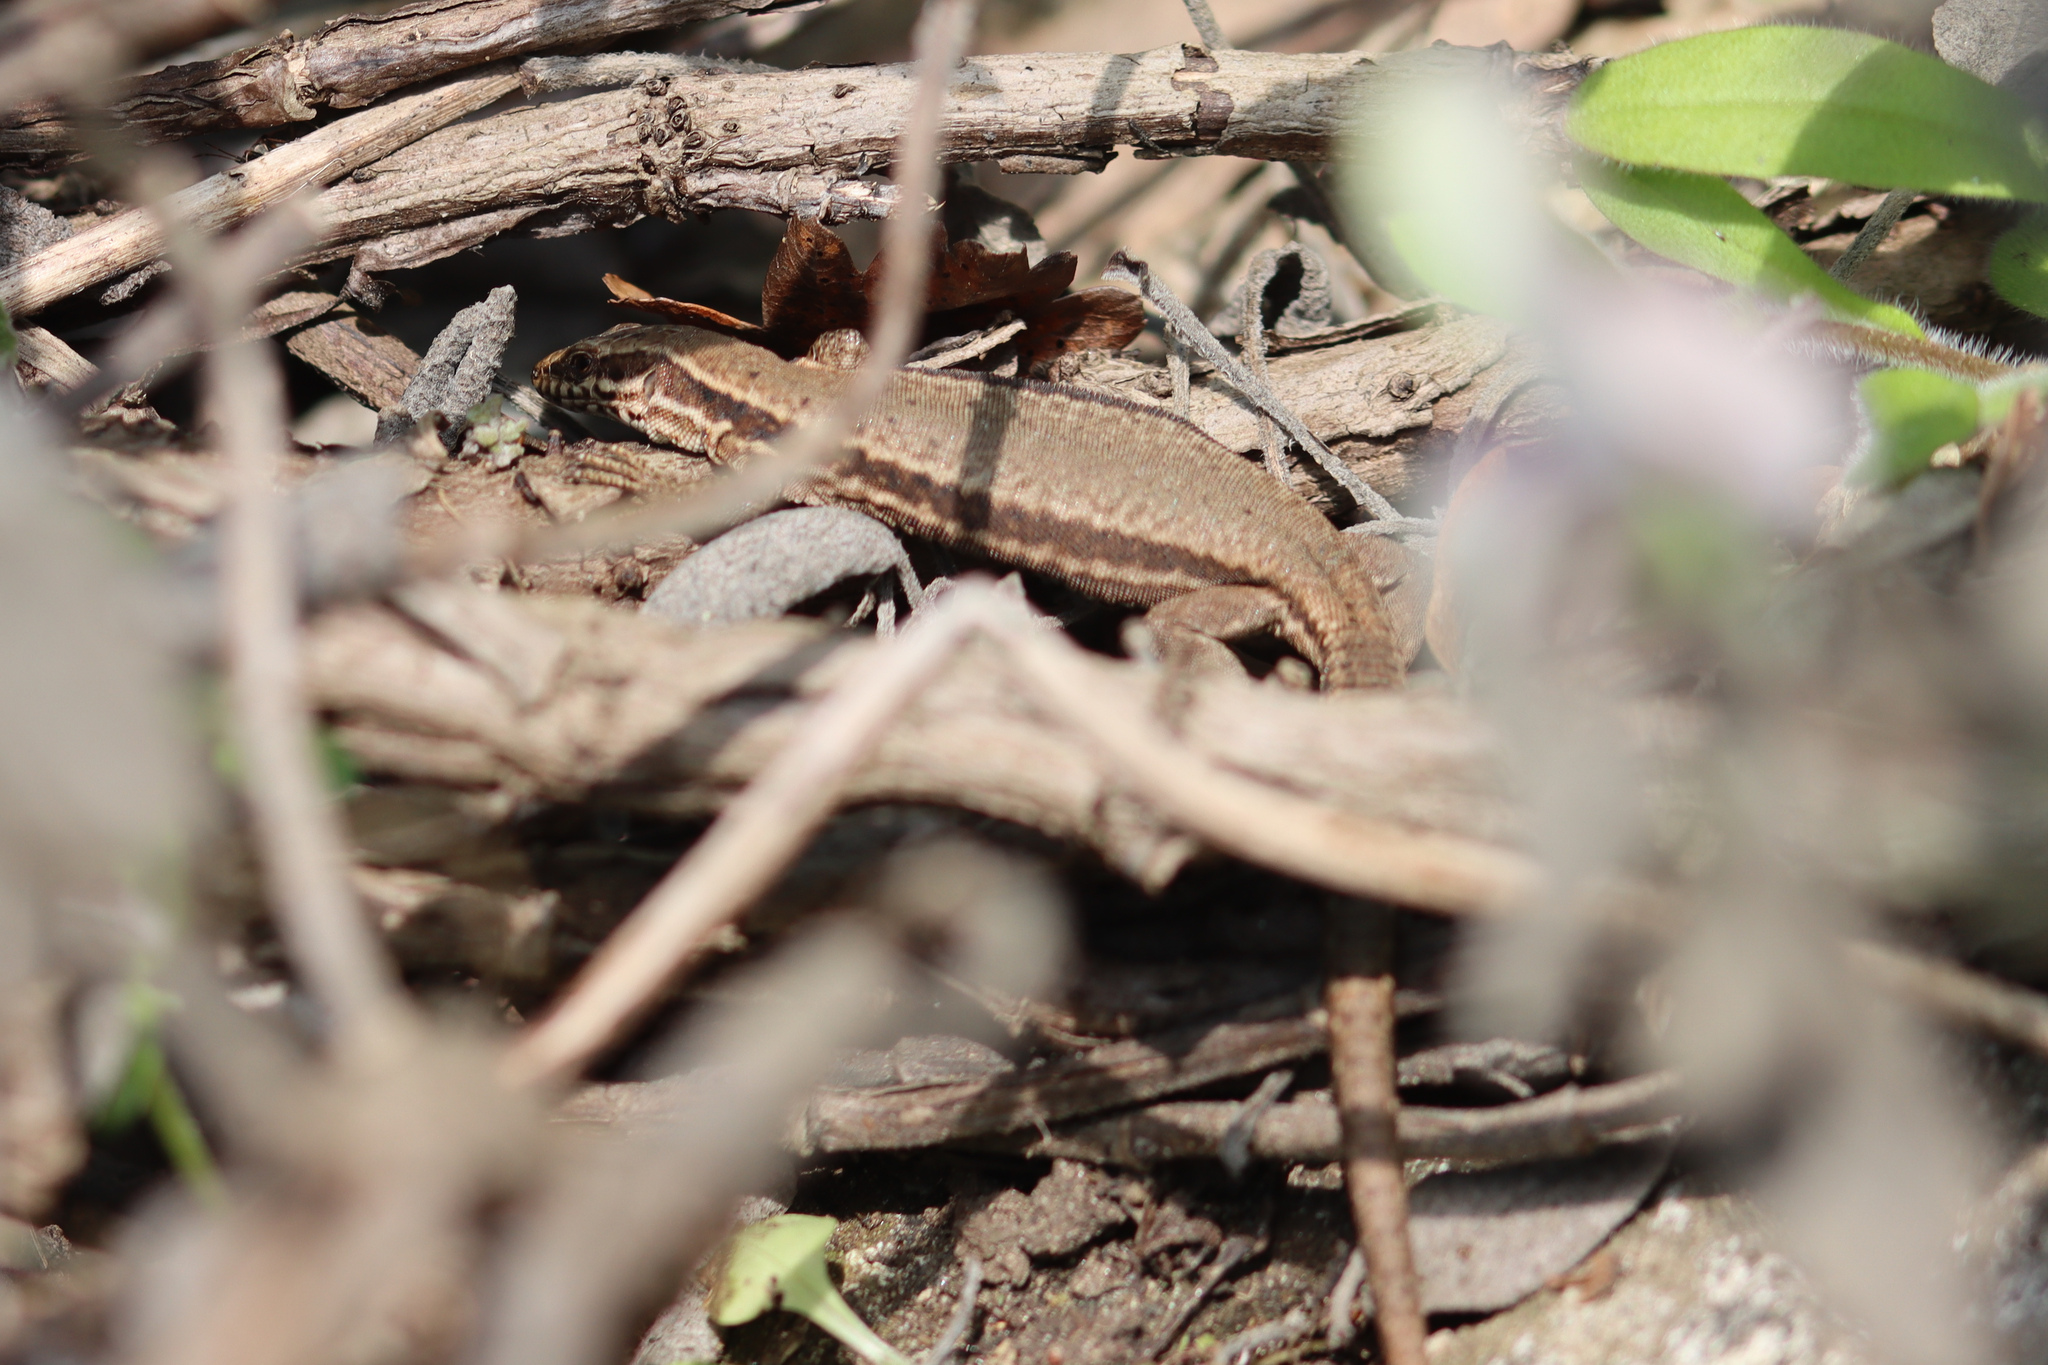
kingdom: Animalia
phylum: Chordata
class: Squamata
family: Lacertidae
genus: Podarcis
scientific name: Podarcis muralis
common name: Common wall lizard
